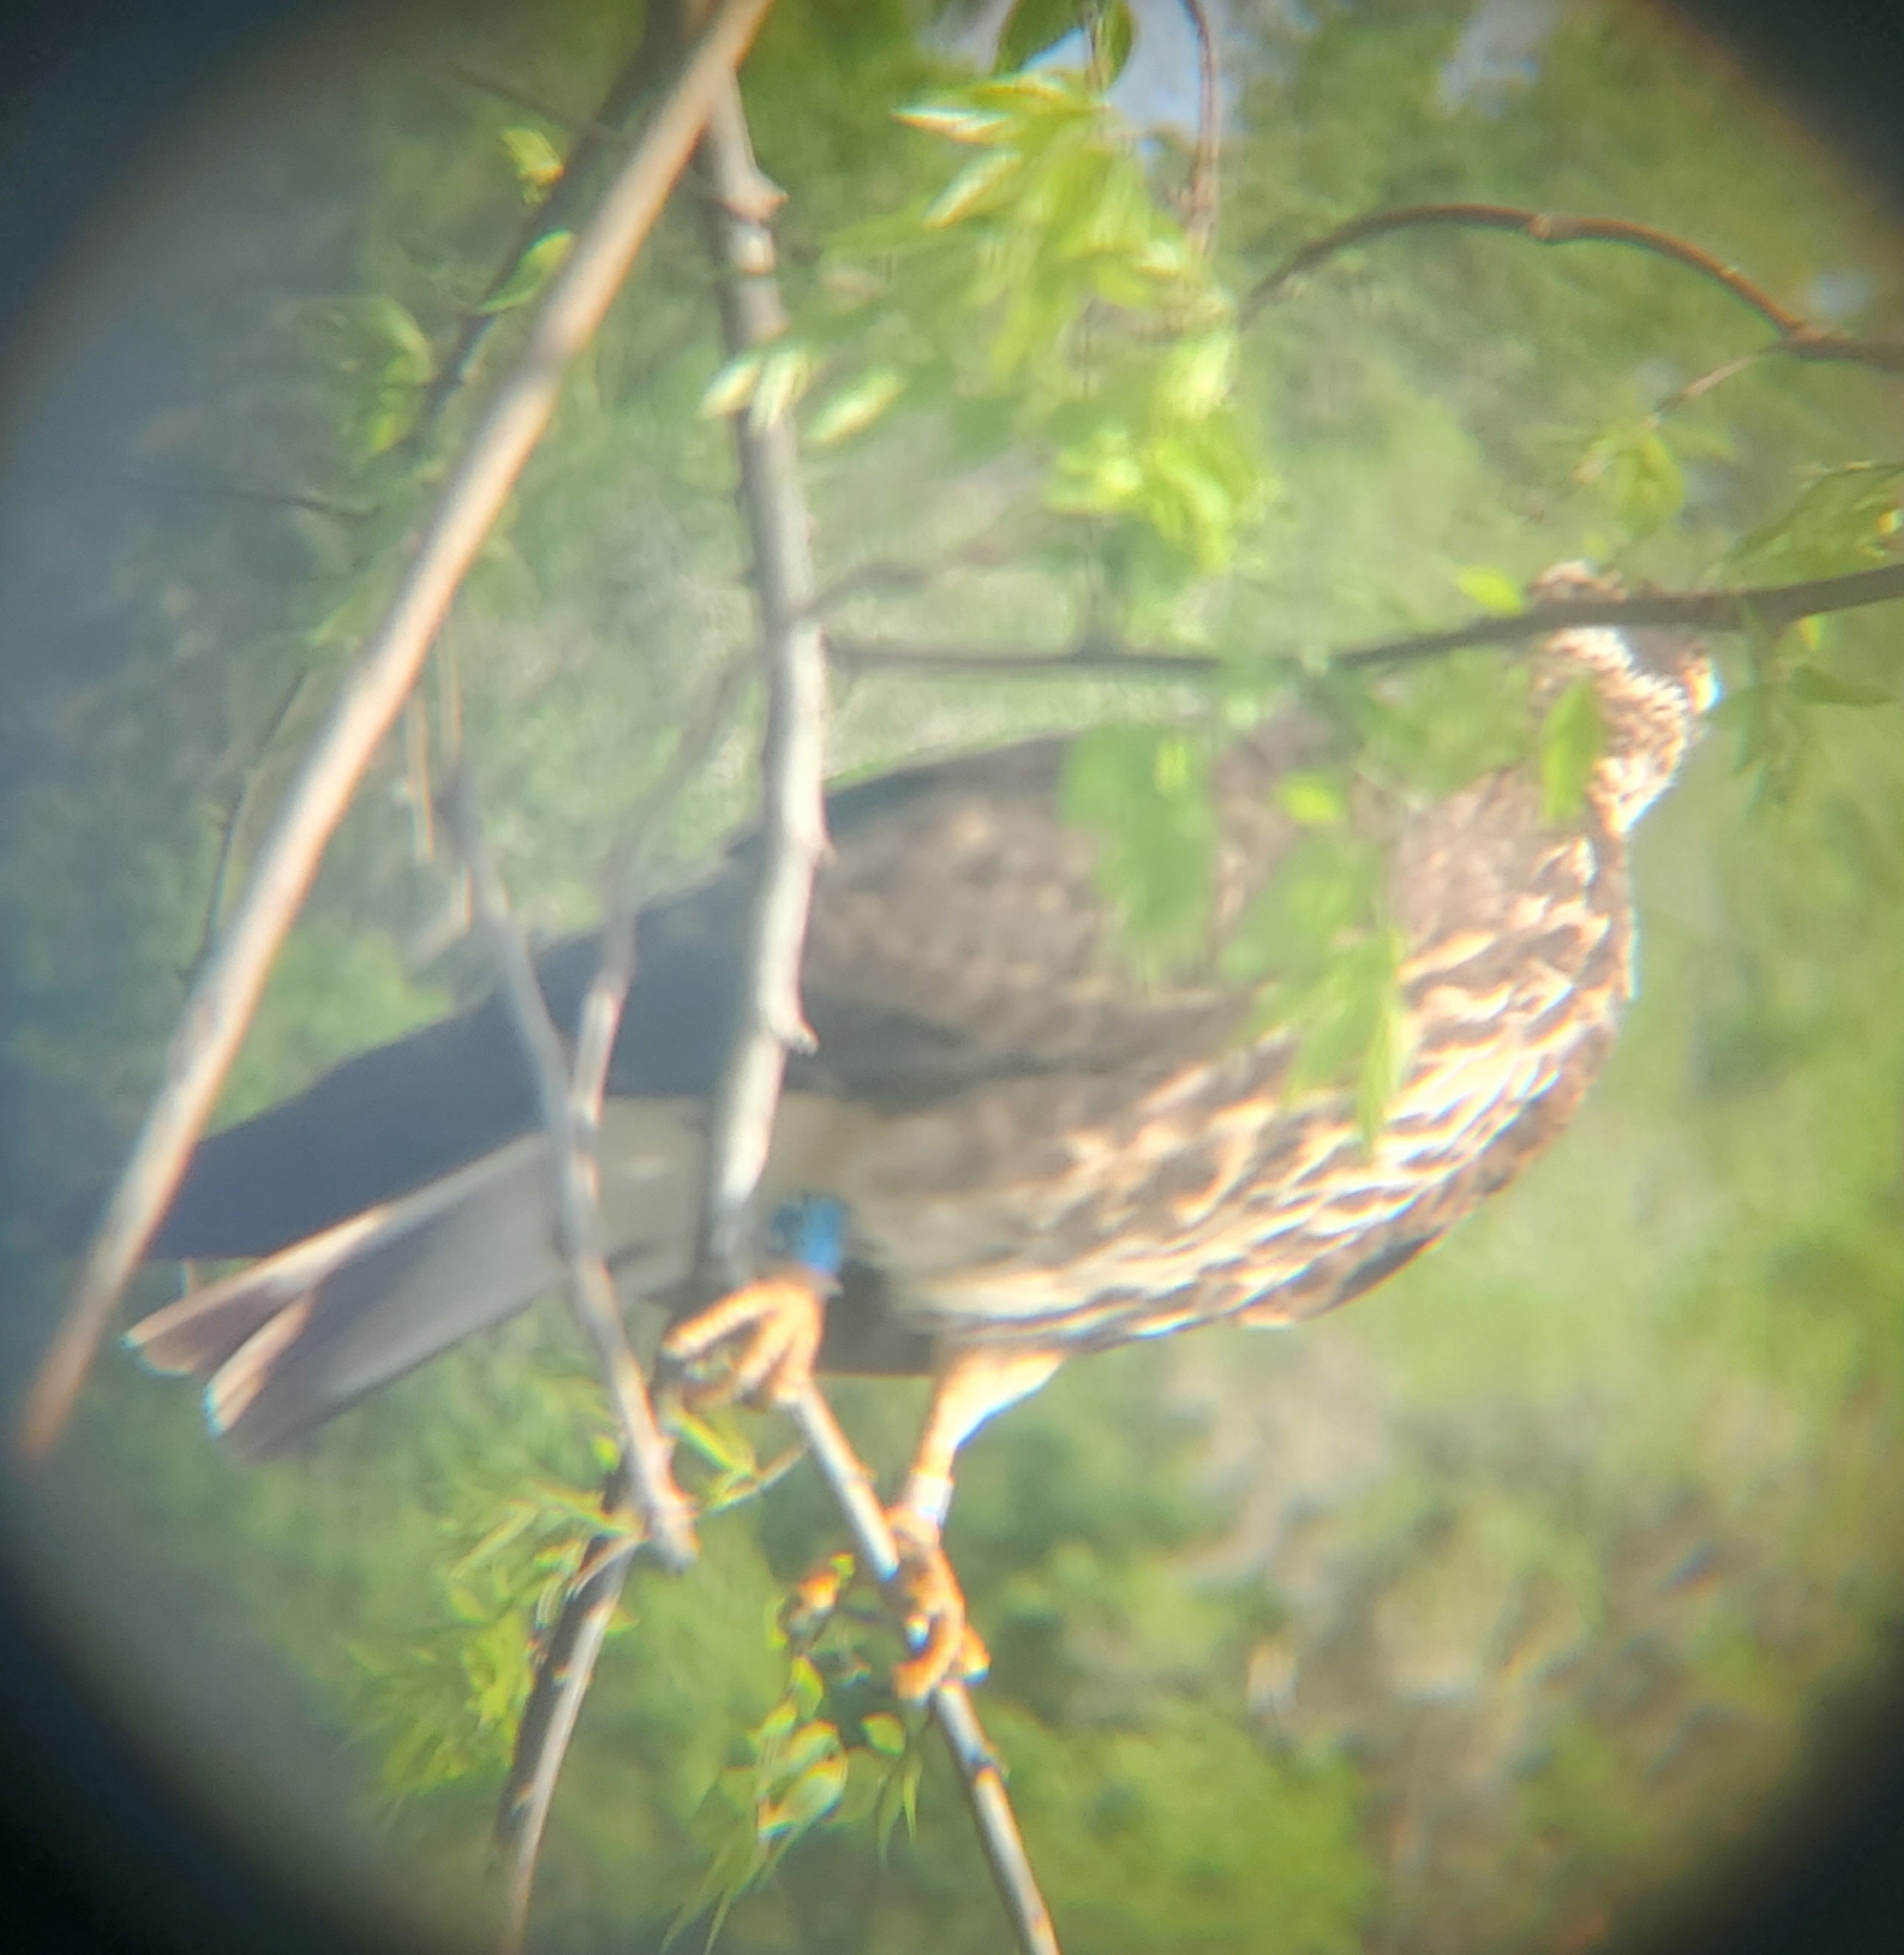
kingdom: Animalia
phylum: Chordata
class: Aves
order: Accipitriformes
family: Accipitridae
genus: Rostrhamus
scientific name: Rostrhamus sociabilis
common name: Snail kite
